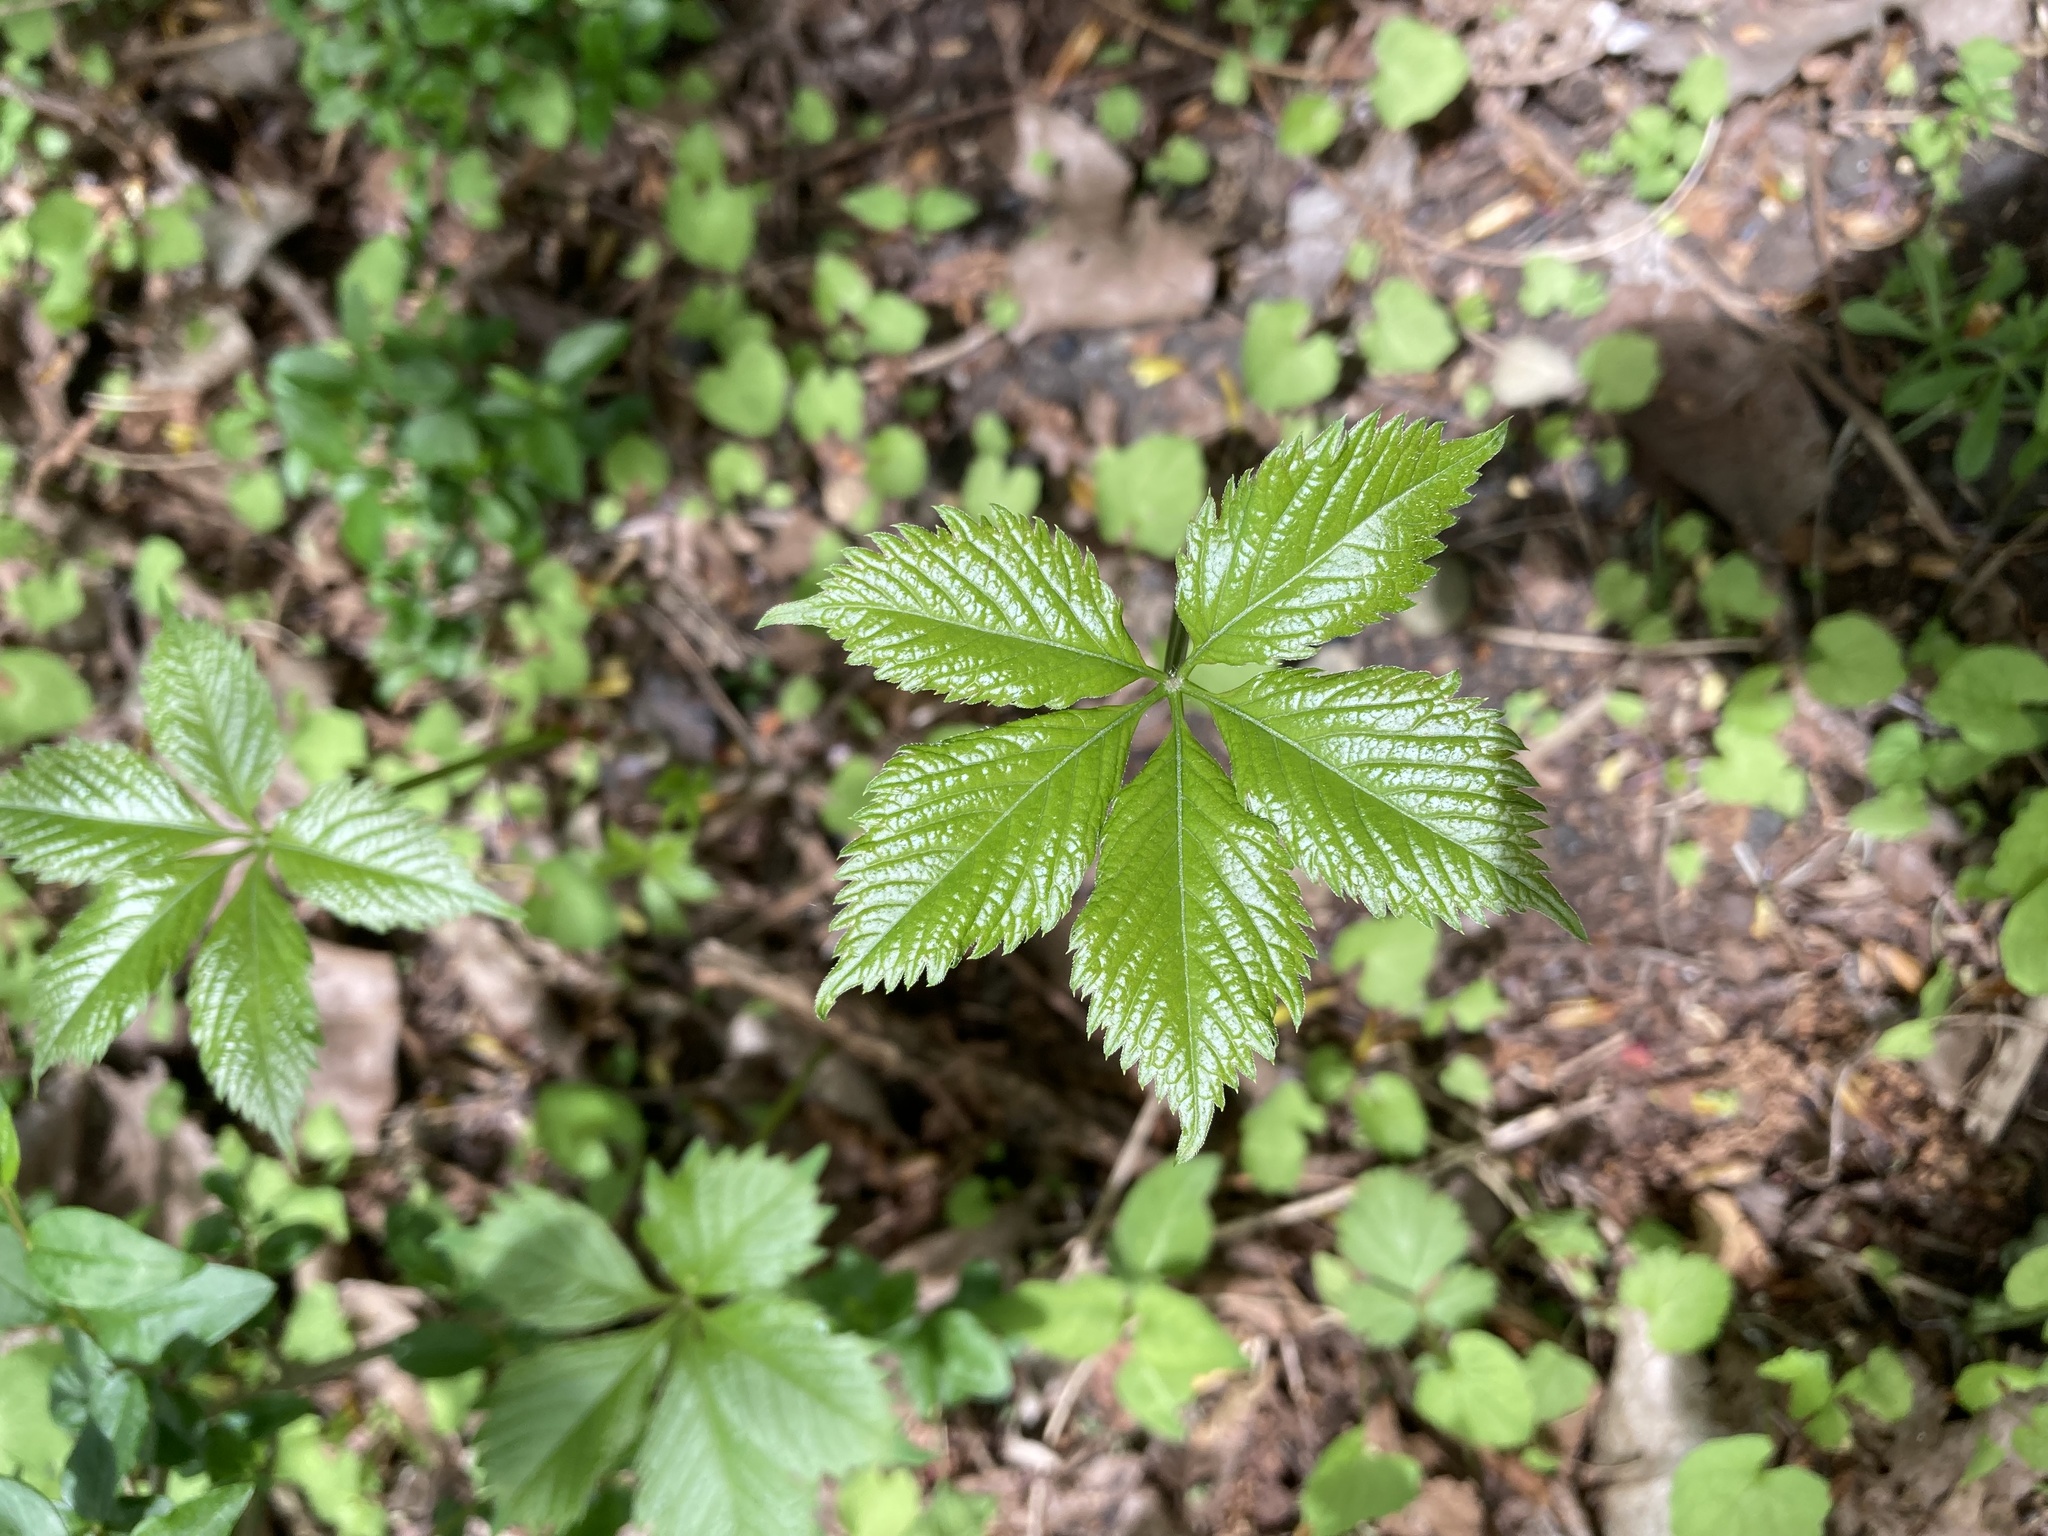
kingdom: Plantae
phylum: Tracheophyta
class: Magnoliopsida
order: Vitales
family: Vitaceae
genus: Parthenocissus
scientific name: Parthenocissus inserta
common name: False virginia-creeper
